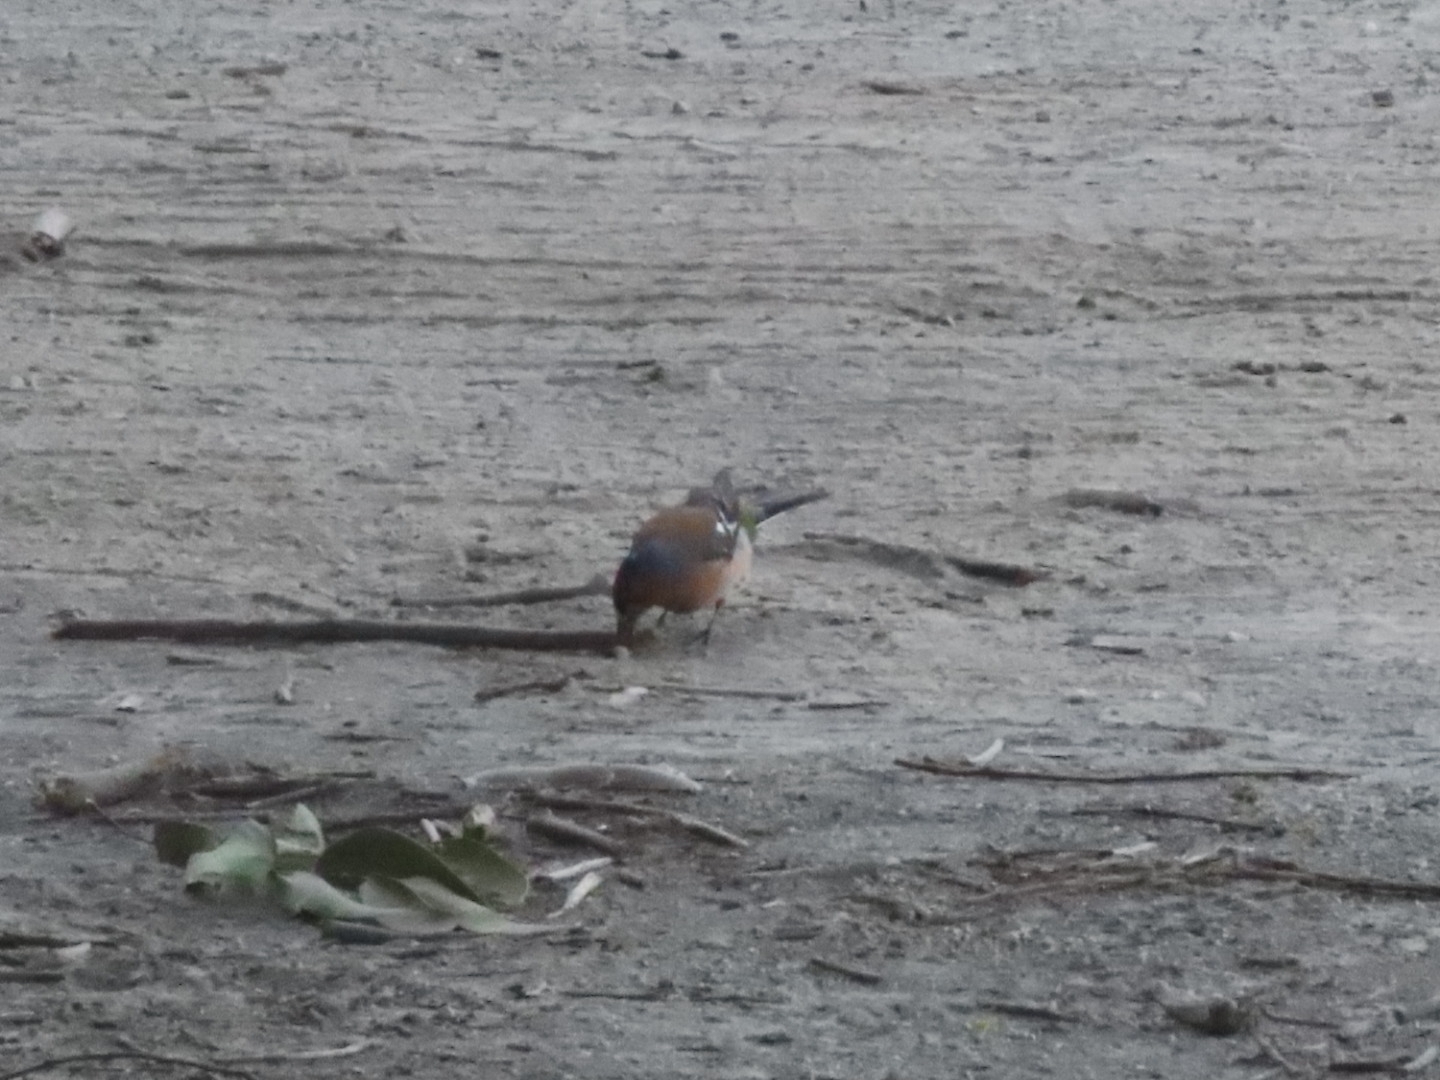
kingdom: Animalia
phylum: Chordata
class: Aves
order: Passeriformes
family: Fringillidae
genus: Fringilla
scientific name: Fringilla coelebs
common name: Common chaffinch
